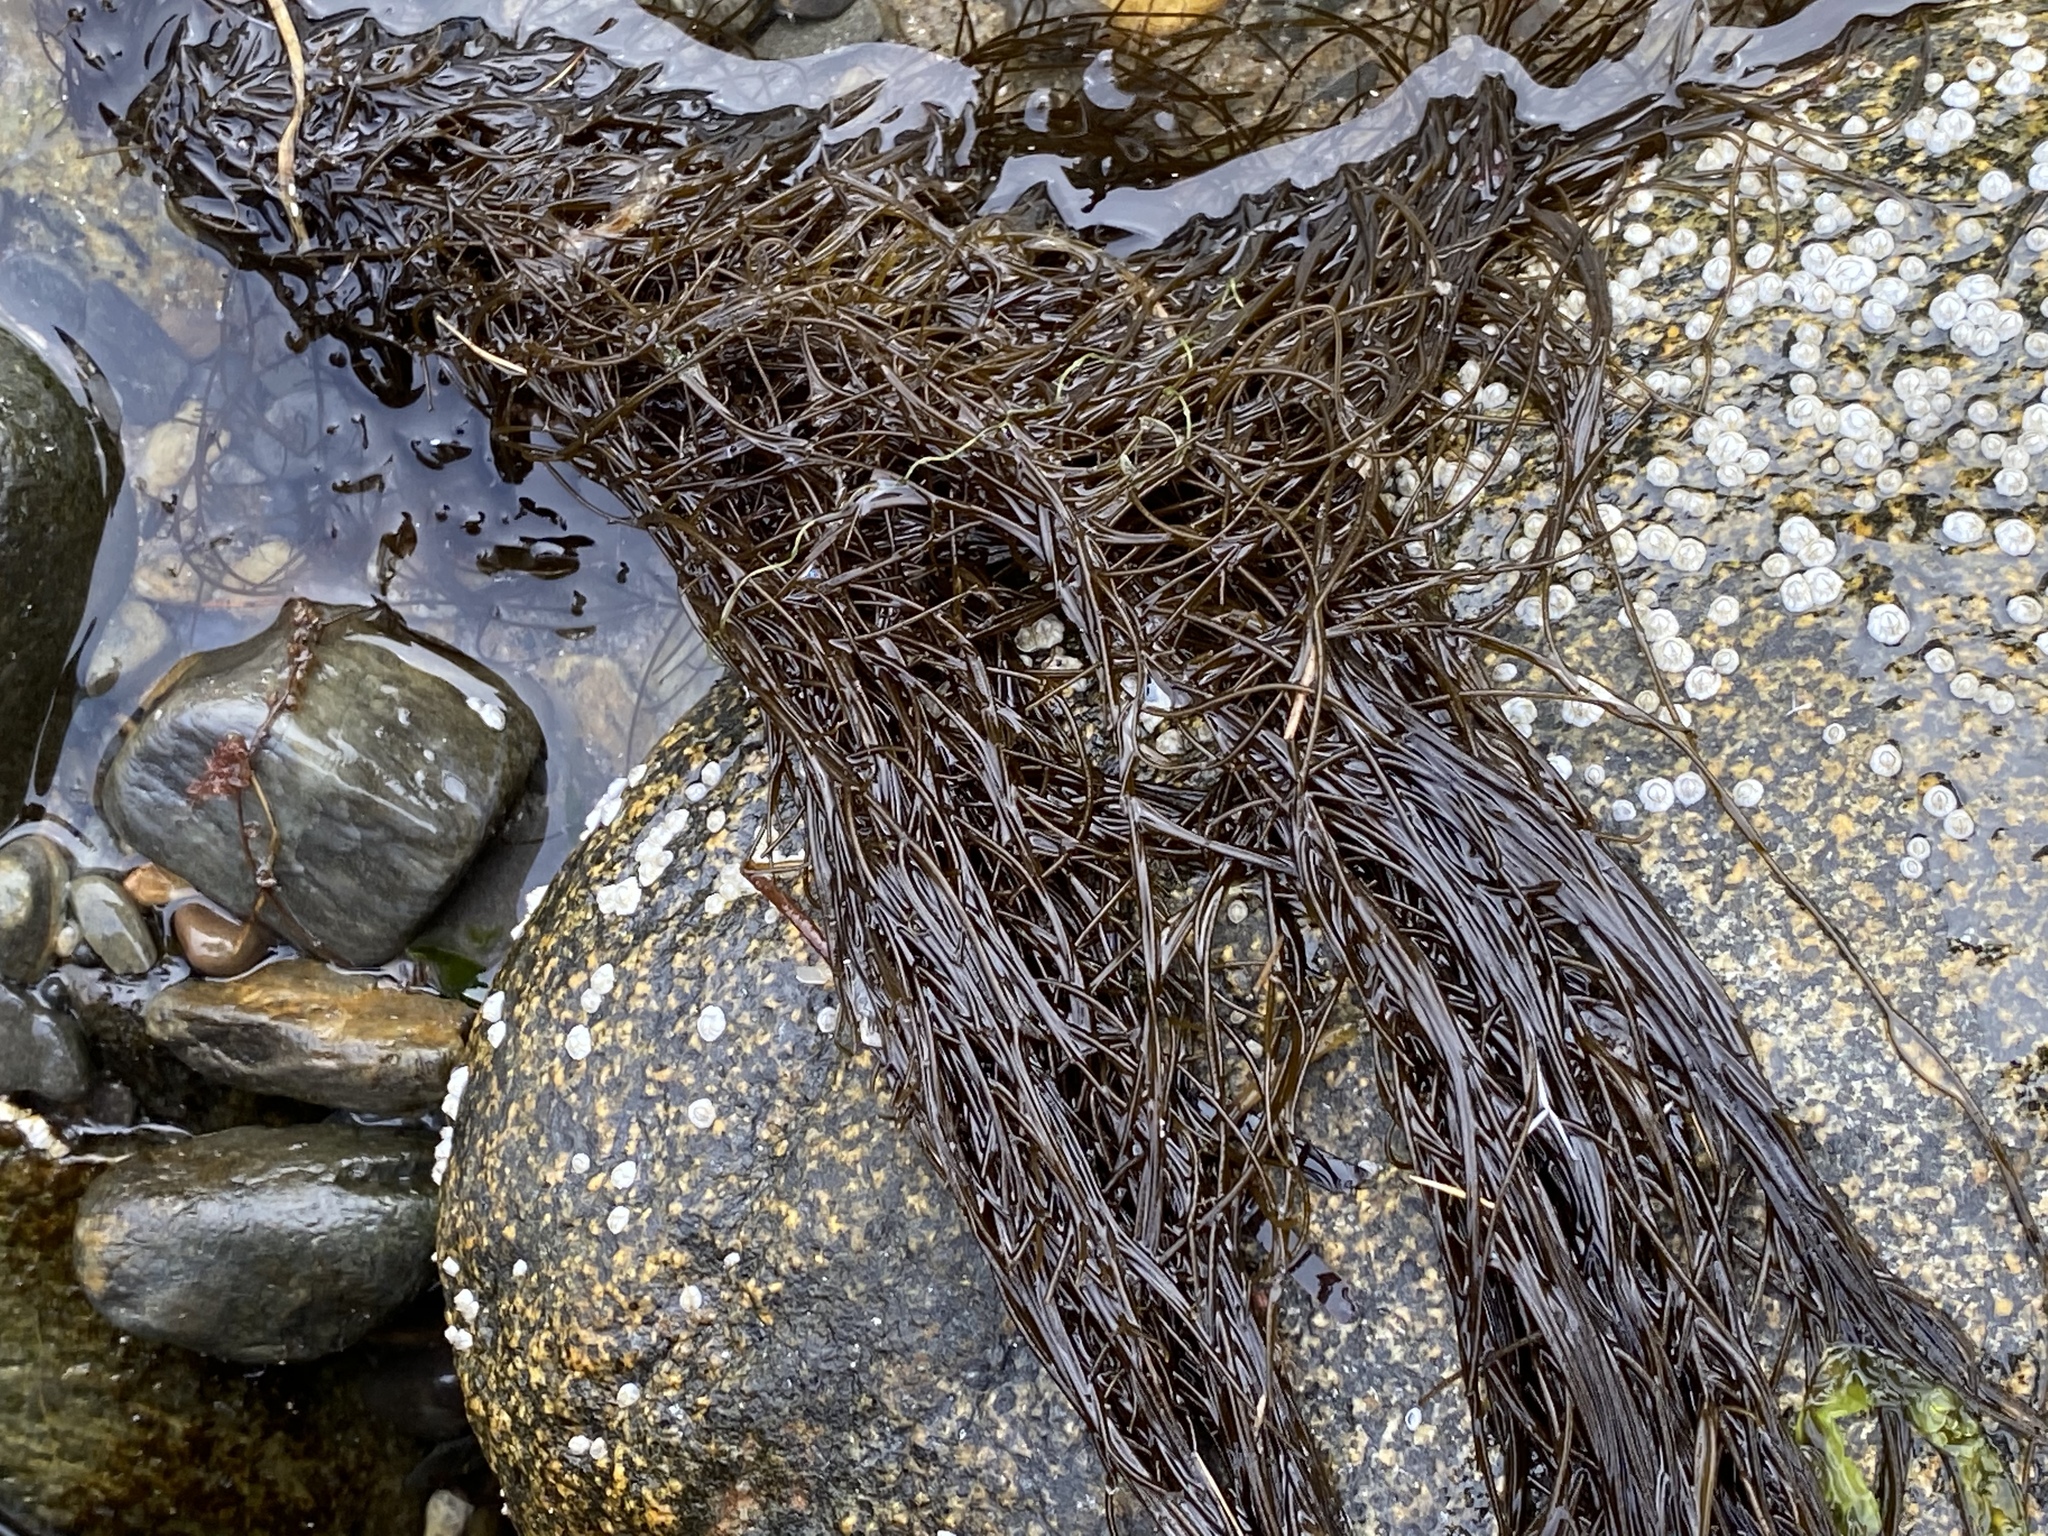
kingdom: Chromista
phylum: Ochrophyta
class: Phaeophyceae
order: Ectocarpales
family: Chordariaceae
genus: Chordaria
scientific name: Chordaria flagelliformis
